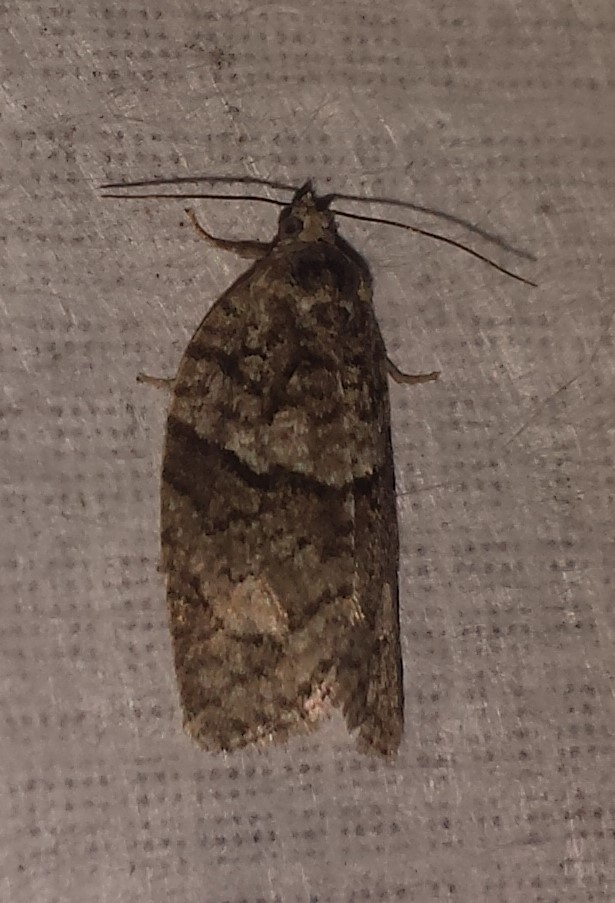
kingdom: Animalia
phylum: Arthropoda
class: Insecta
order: Lepidoptera
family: Tortricidae
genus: Syndemis
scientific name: Syndemis afflictana
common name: Gray leafroller moth
